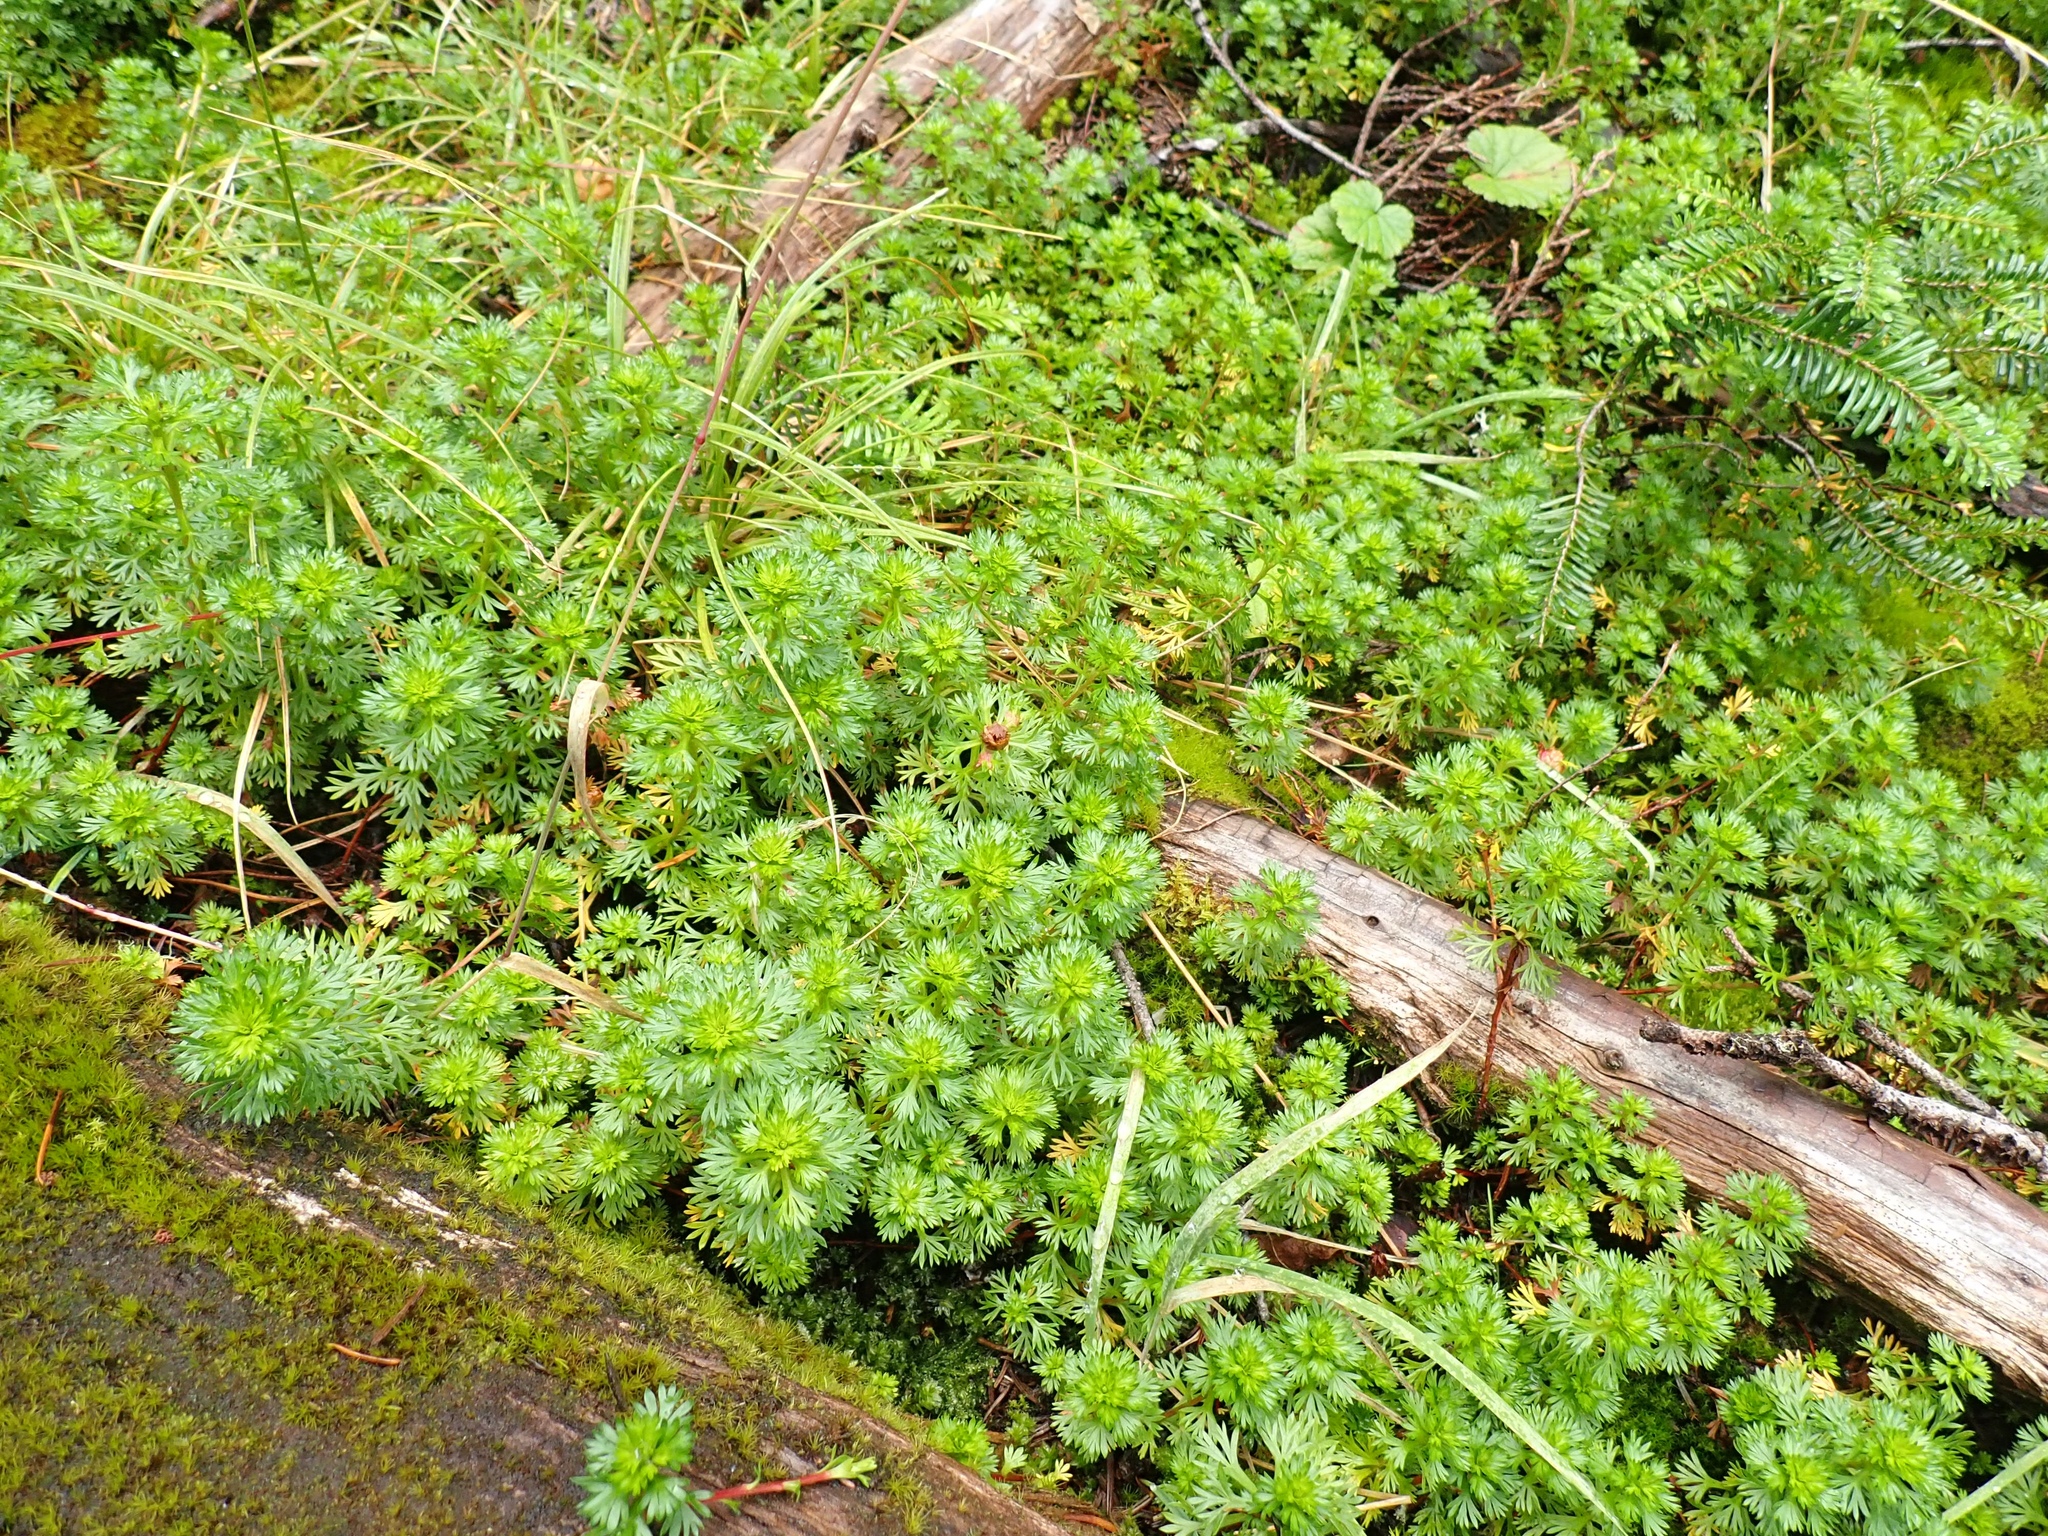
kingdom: Plantae
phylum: Tracheophyta
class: Magnoliopsida
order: Rosales
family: Rosaceae
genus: Luetkea
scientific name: Luetkea pectinata
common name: Partridgefoot
